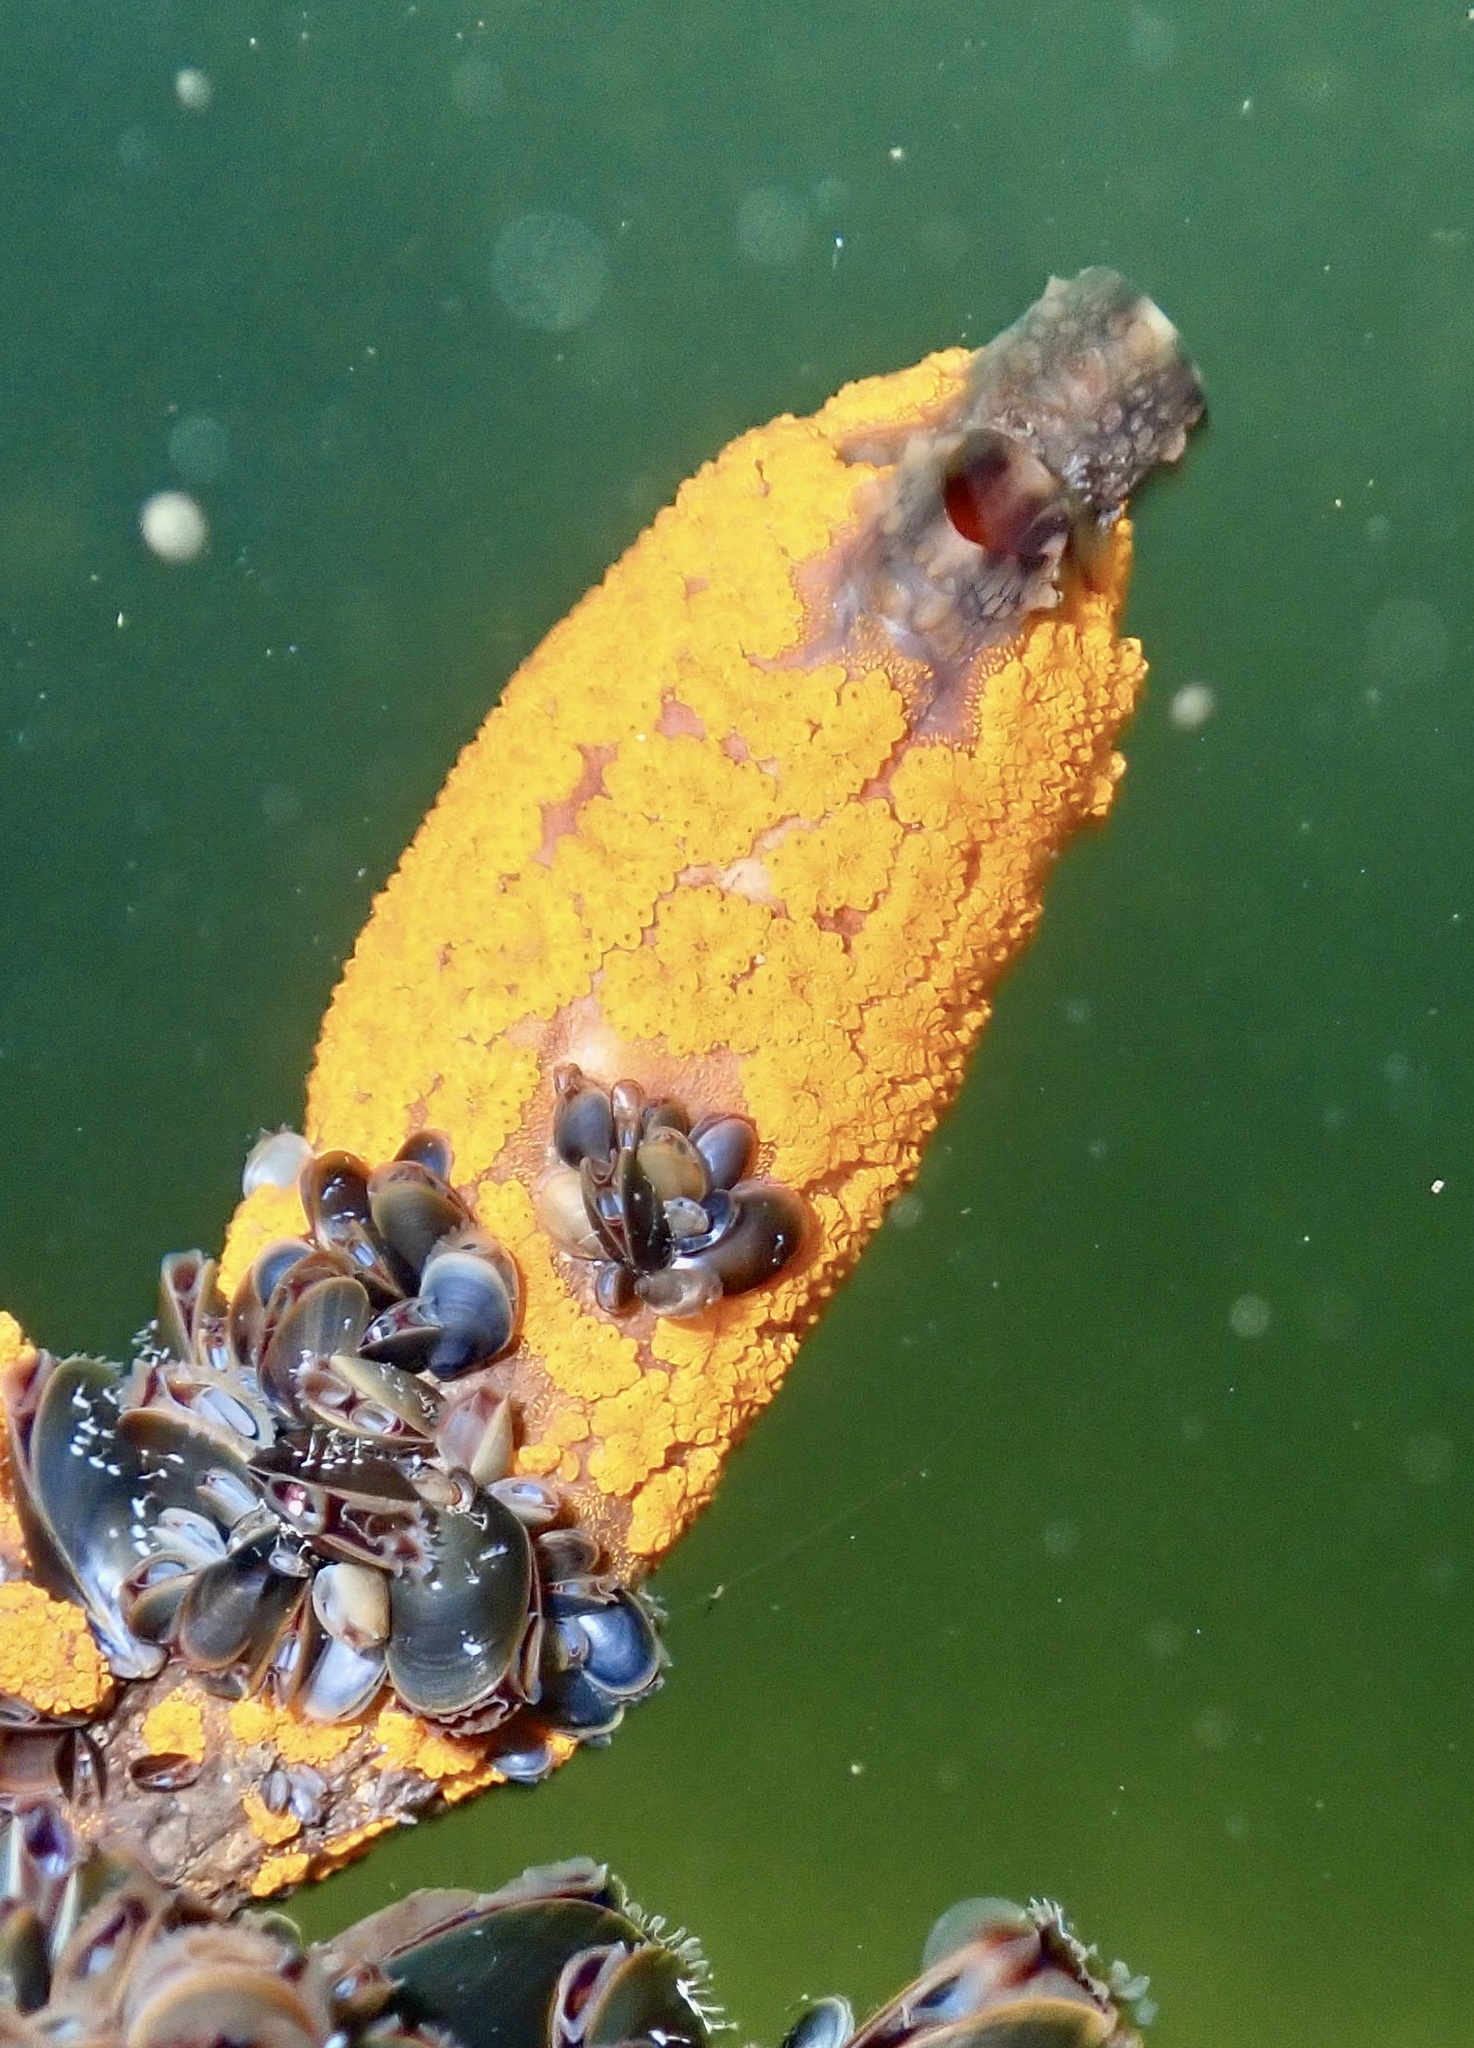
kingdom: Animalia
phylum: Chordata
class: Ascidiacea
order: Stolidobranchia
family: Styelidae
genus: Styela
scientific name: Styela clava
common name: Leathery sea squirt
